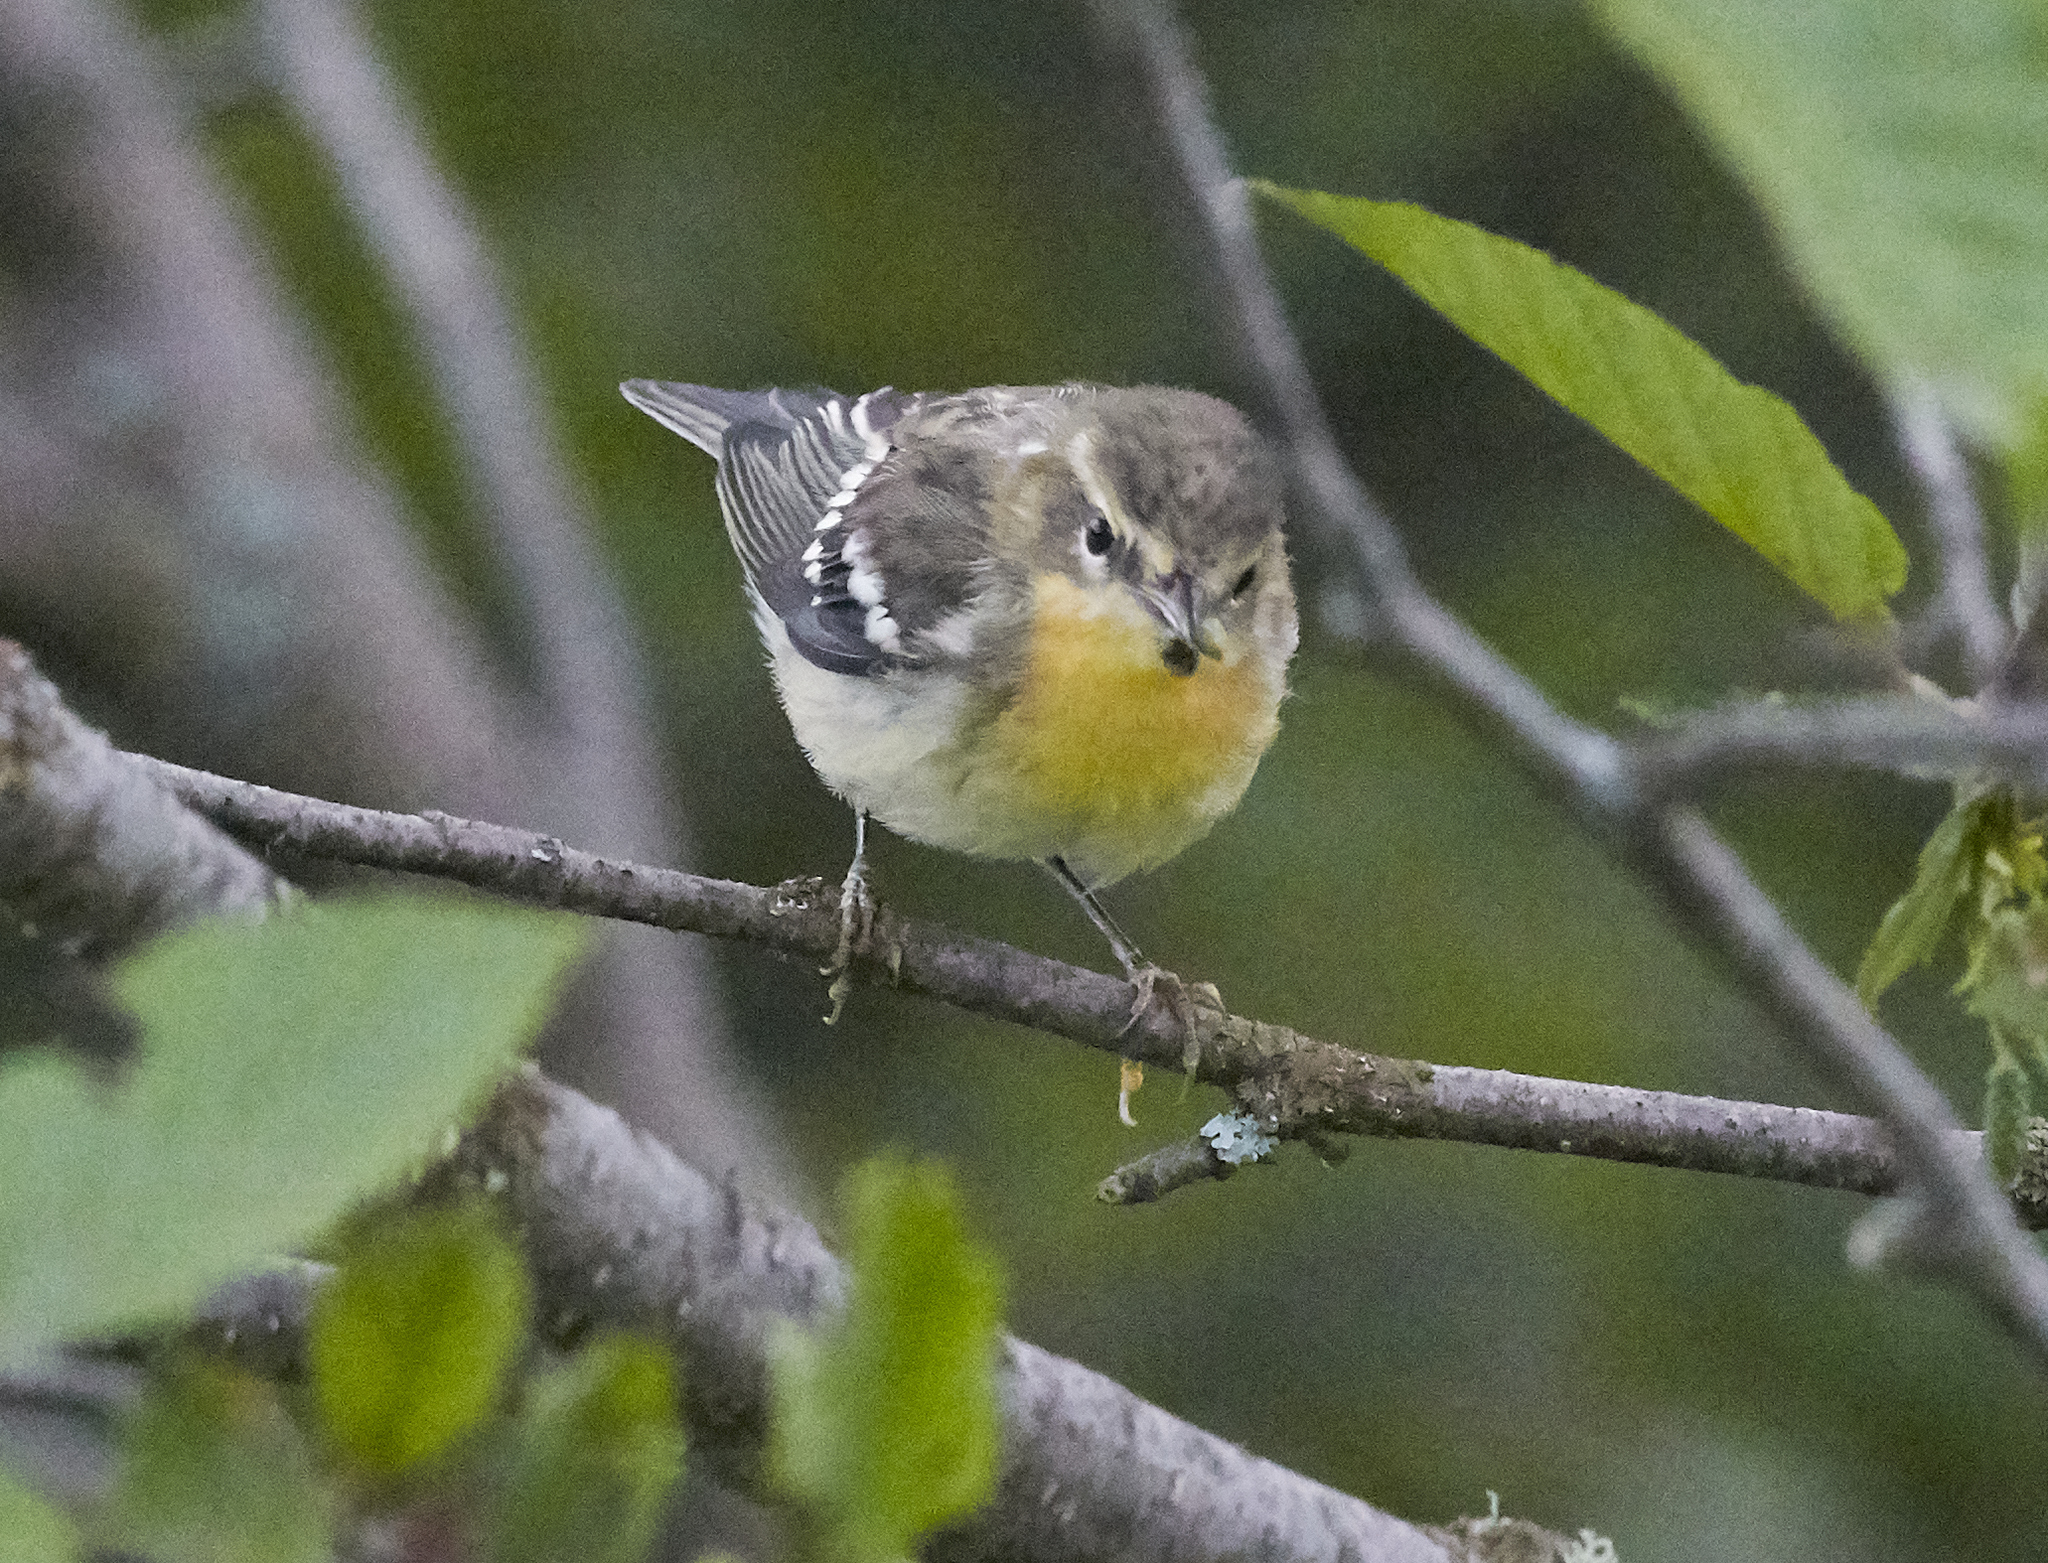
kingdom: Animalia
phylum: Chordata
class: Aves
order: Passeriformes
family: Parulidae
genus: Setophaga
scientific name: Setophaga fusca
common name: Blackburnian warbler
